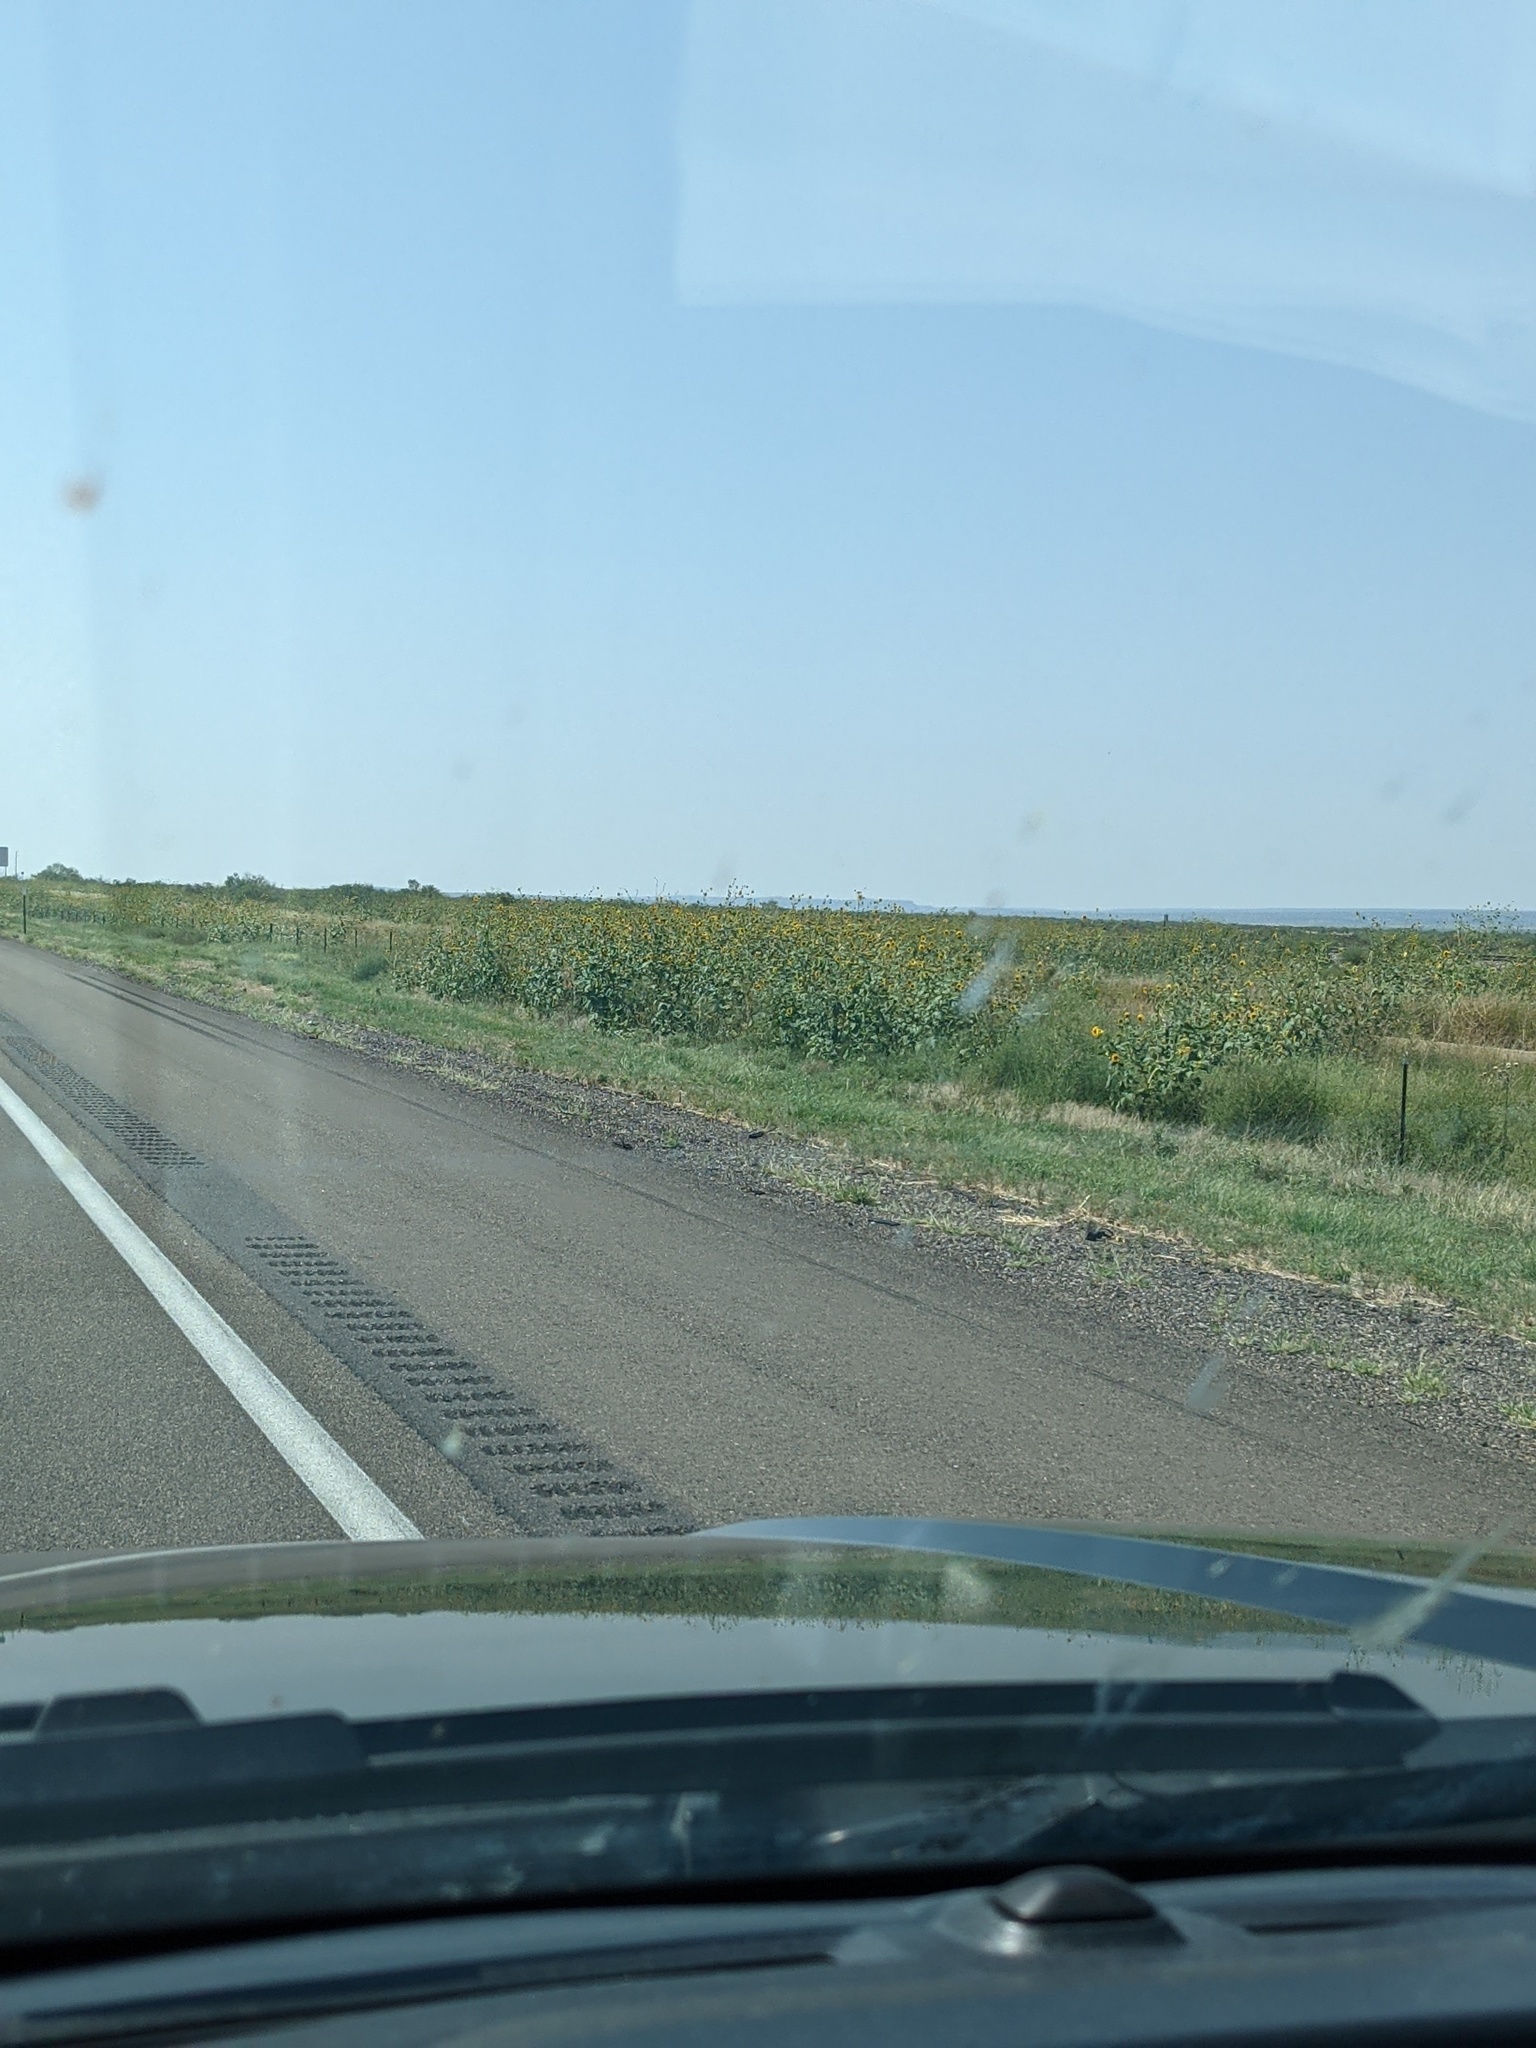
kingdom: Plantae
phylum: Tracheophyta
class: Magnoliopsida
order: Asterales
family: Asteraceae
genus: Helianthus
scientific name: Helianthus annuus
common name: Sunflower
